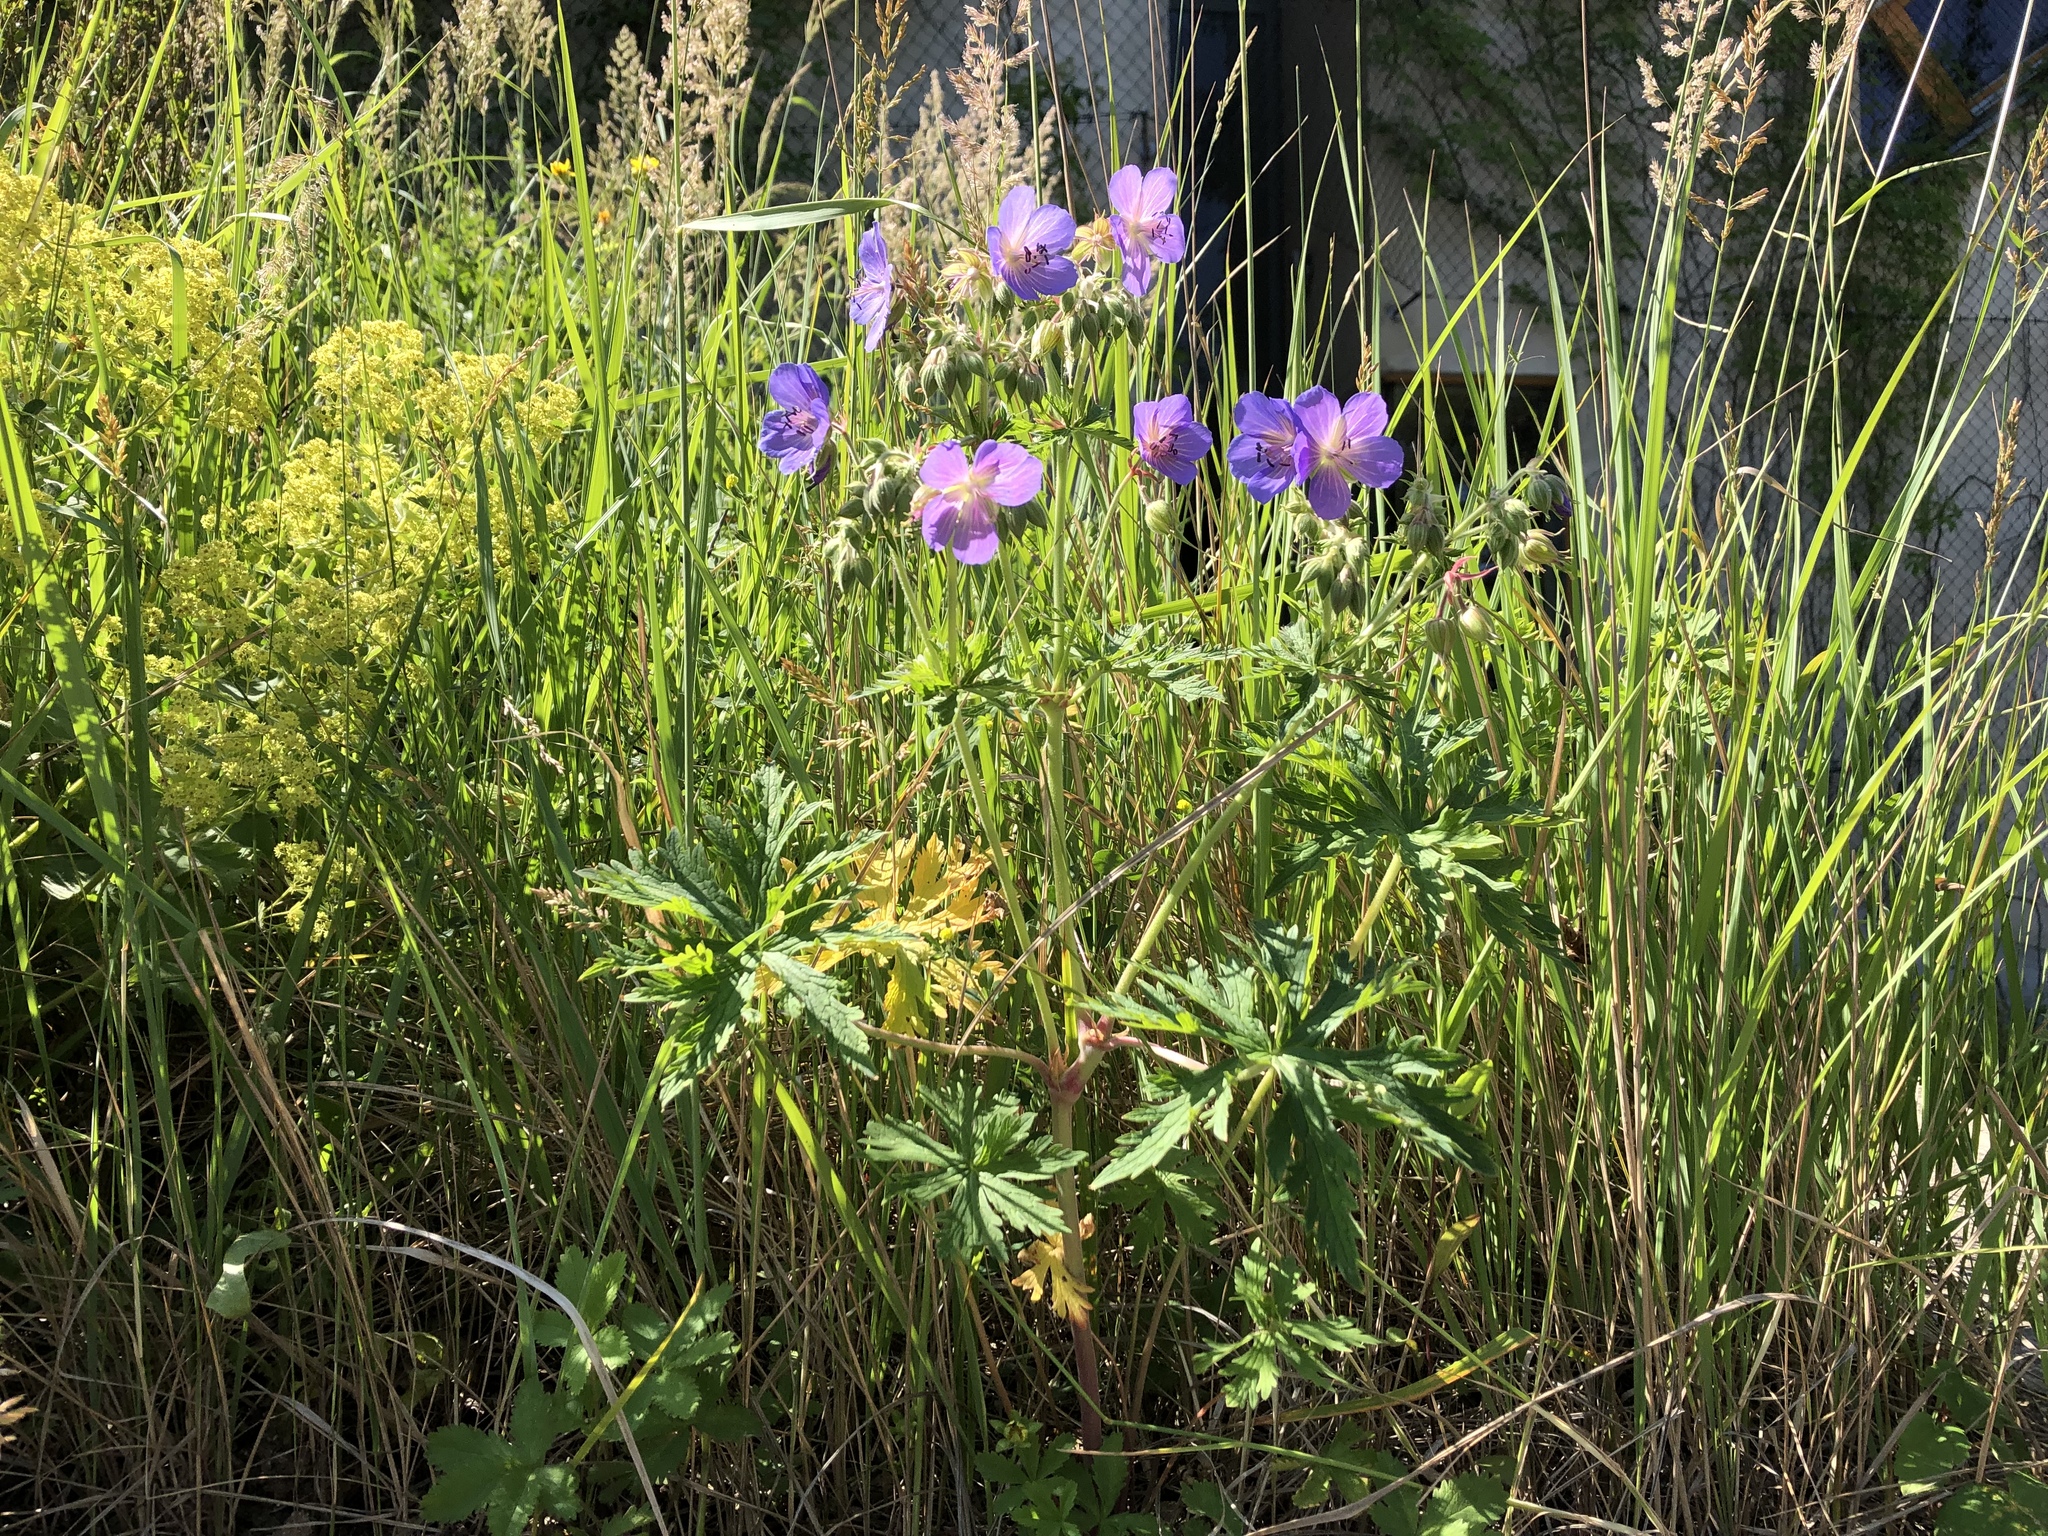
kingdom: Plantae
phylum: Tracheophyta
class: Magnoliopsida
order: Geraniales
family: Geraniaceae
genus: Geranium
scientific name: Geranium pratense
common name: Meadow crane's-bill
